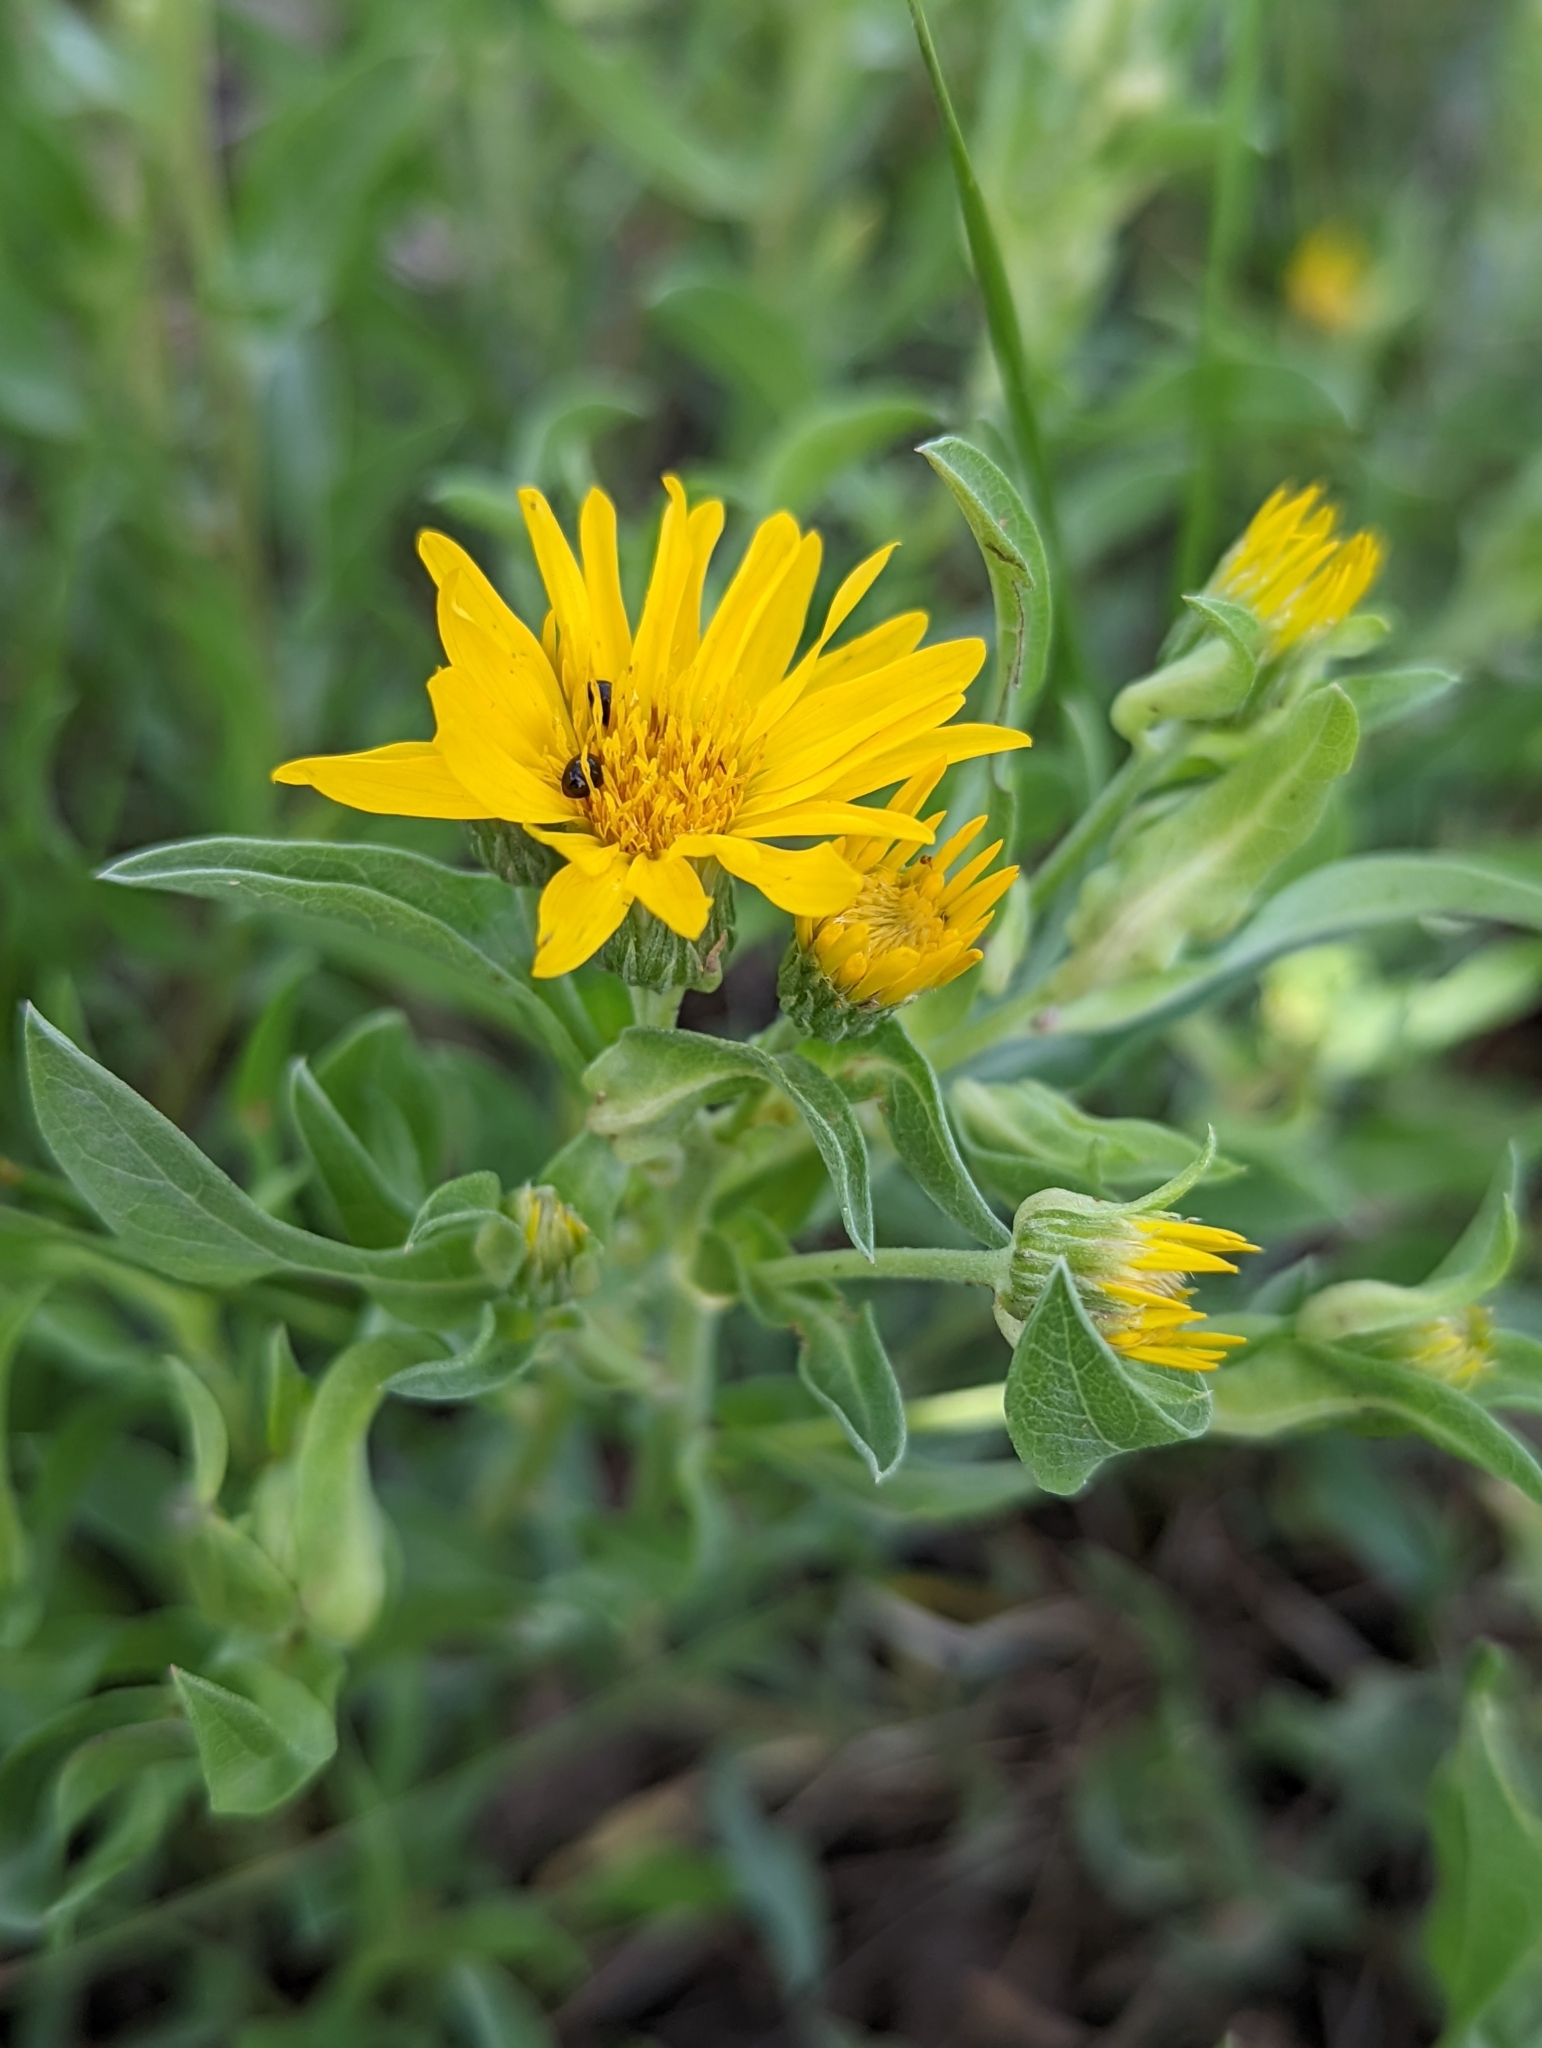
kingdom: Plantae
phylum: Tracheophyta
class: Magnoliopsida
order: Asterales
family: Asteraceae
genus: Heterotheca
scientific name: Heterotheca nitidula
